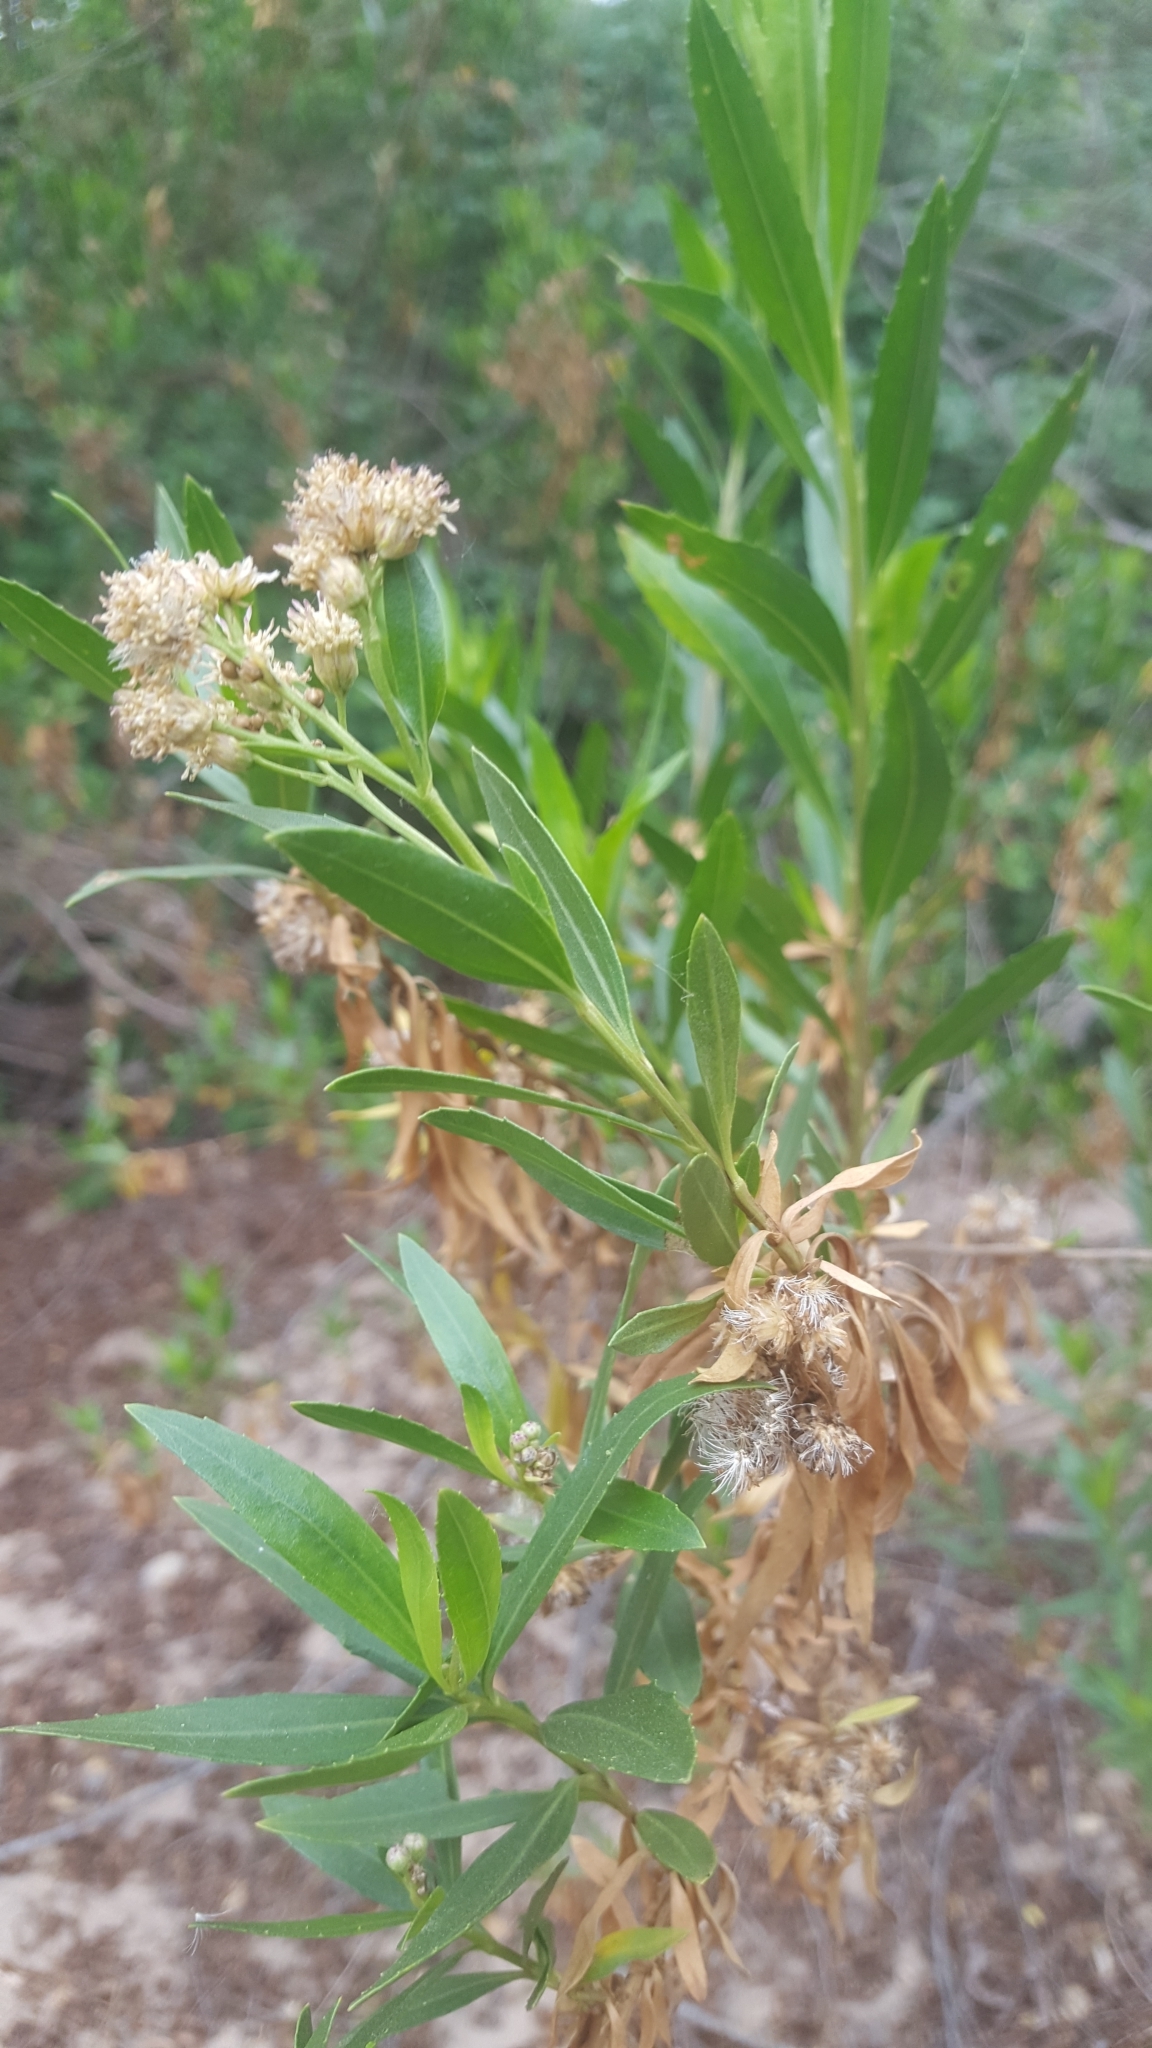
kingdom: Plantae
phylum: Tracheophyta
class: Magnoliopsida
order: Asterales
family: Asteraceae
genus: Baccharis
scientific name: Baccharis salicifolia
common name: Sticky baccharis
